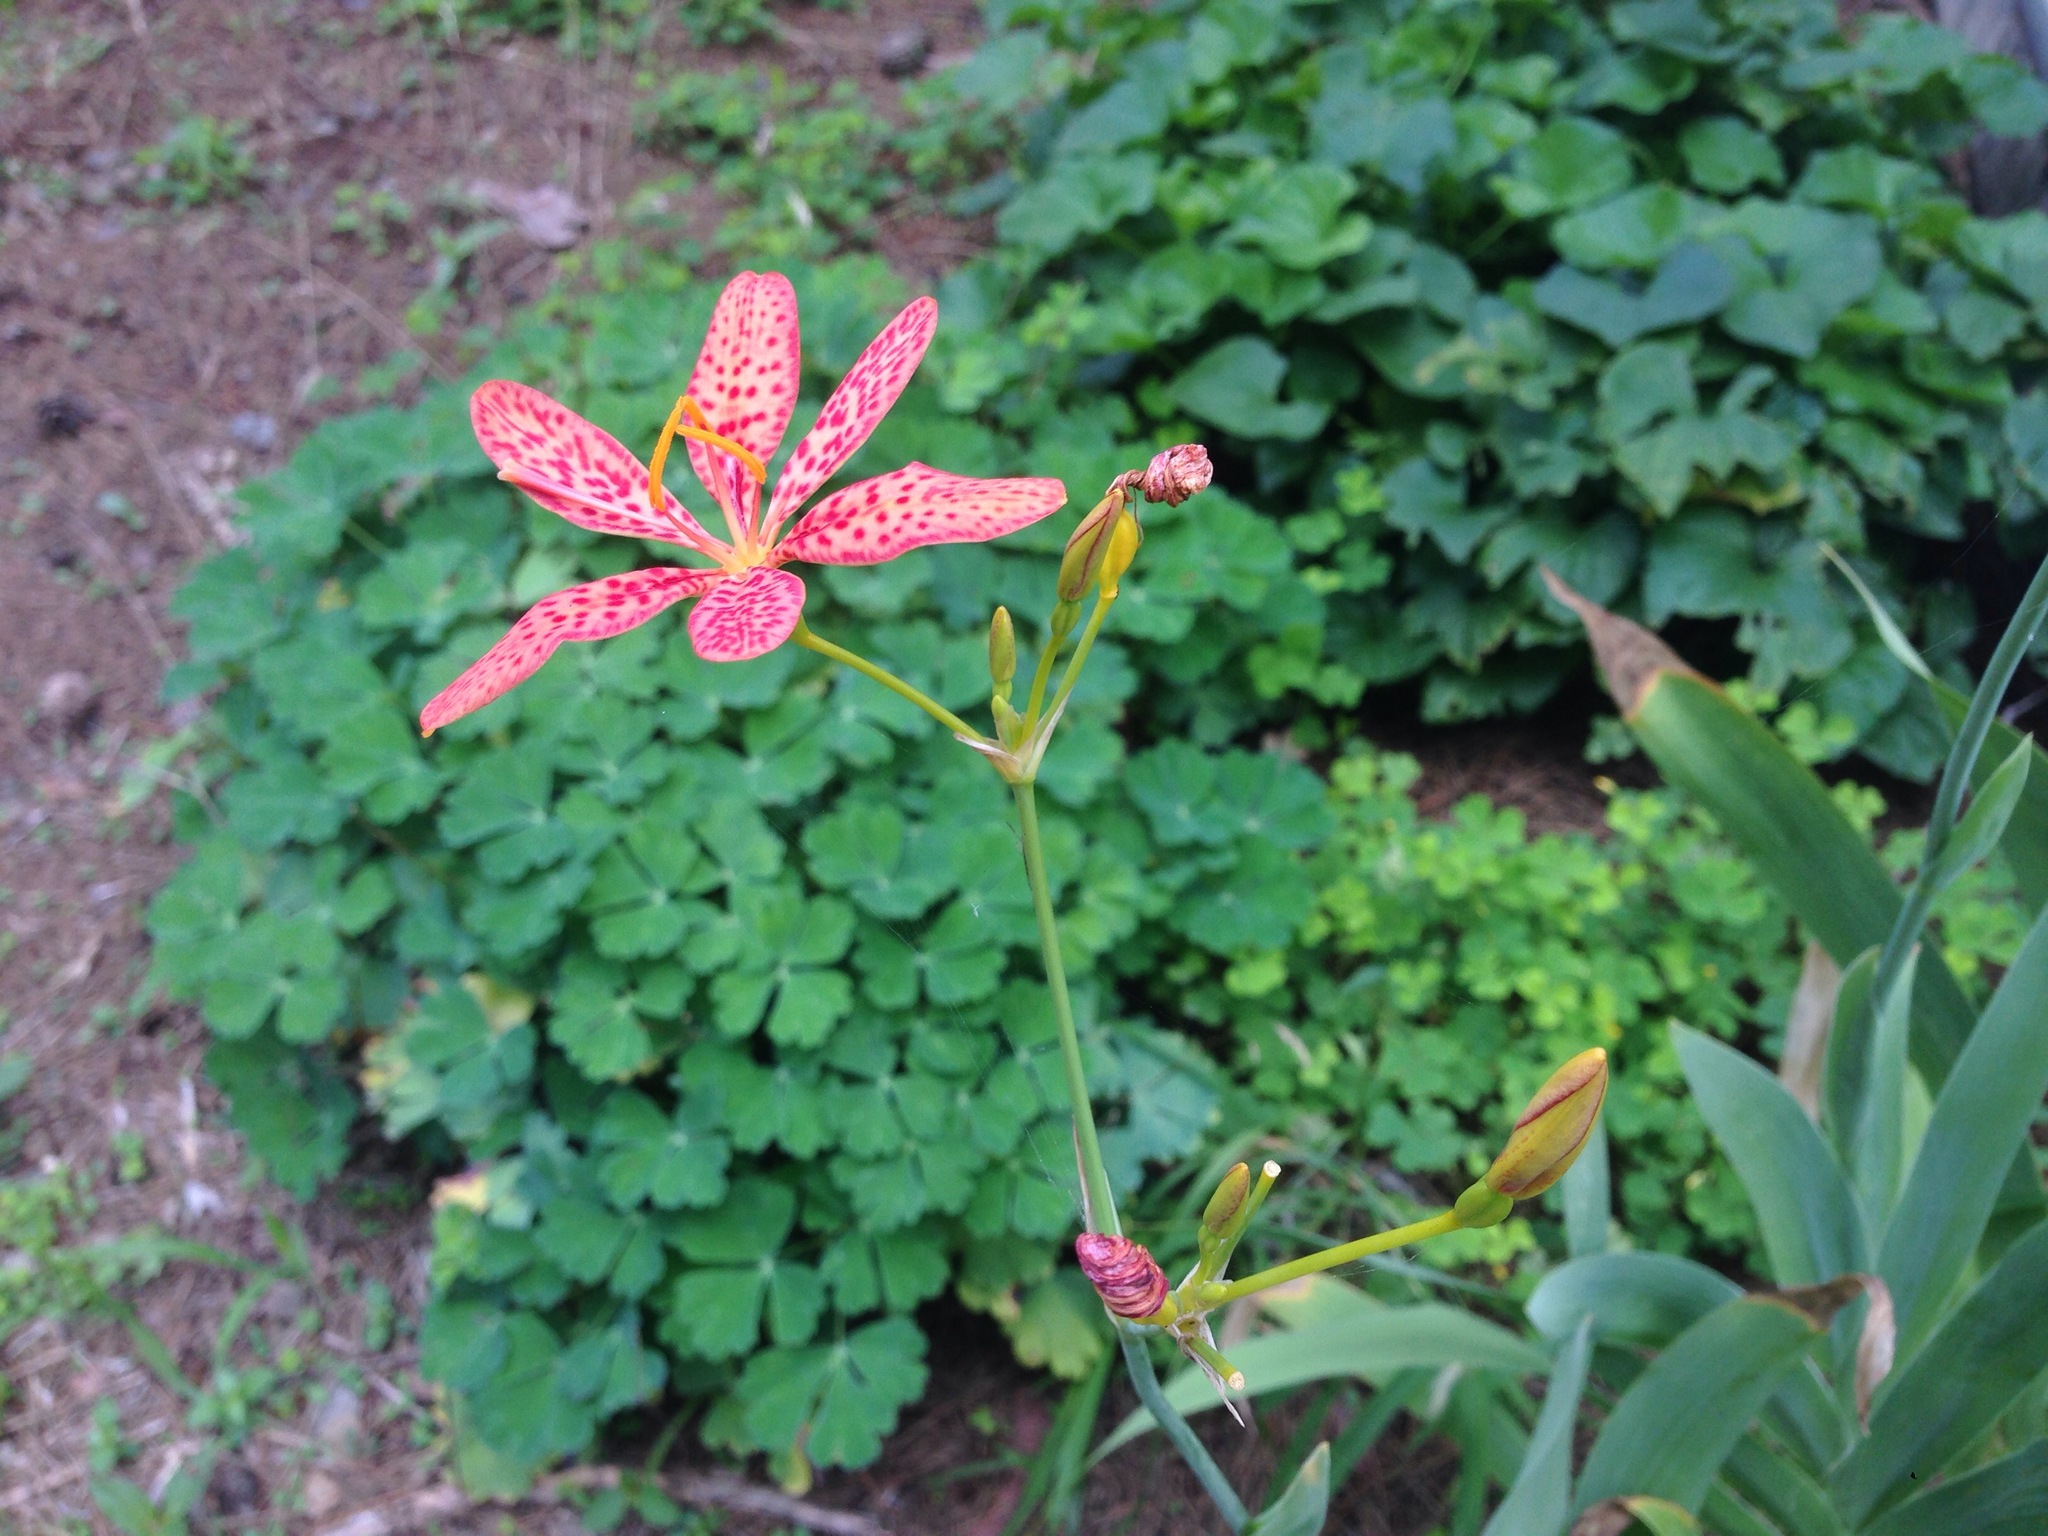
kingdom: Plantae
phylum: Tracheophyta
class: Liliopsida
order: Asparagales
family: Iridaceae
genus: Iris
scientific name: Iris domestica
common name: Belamcanda
